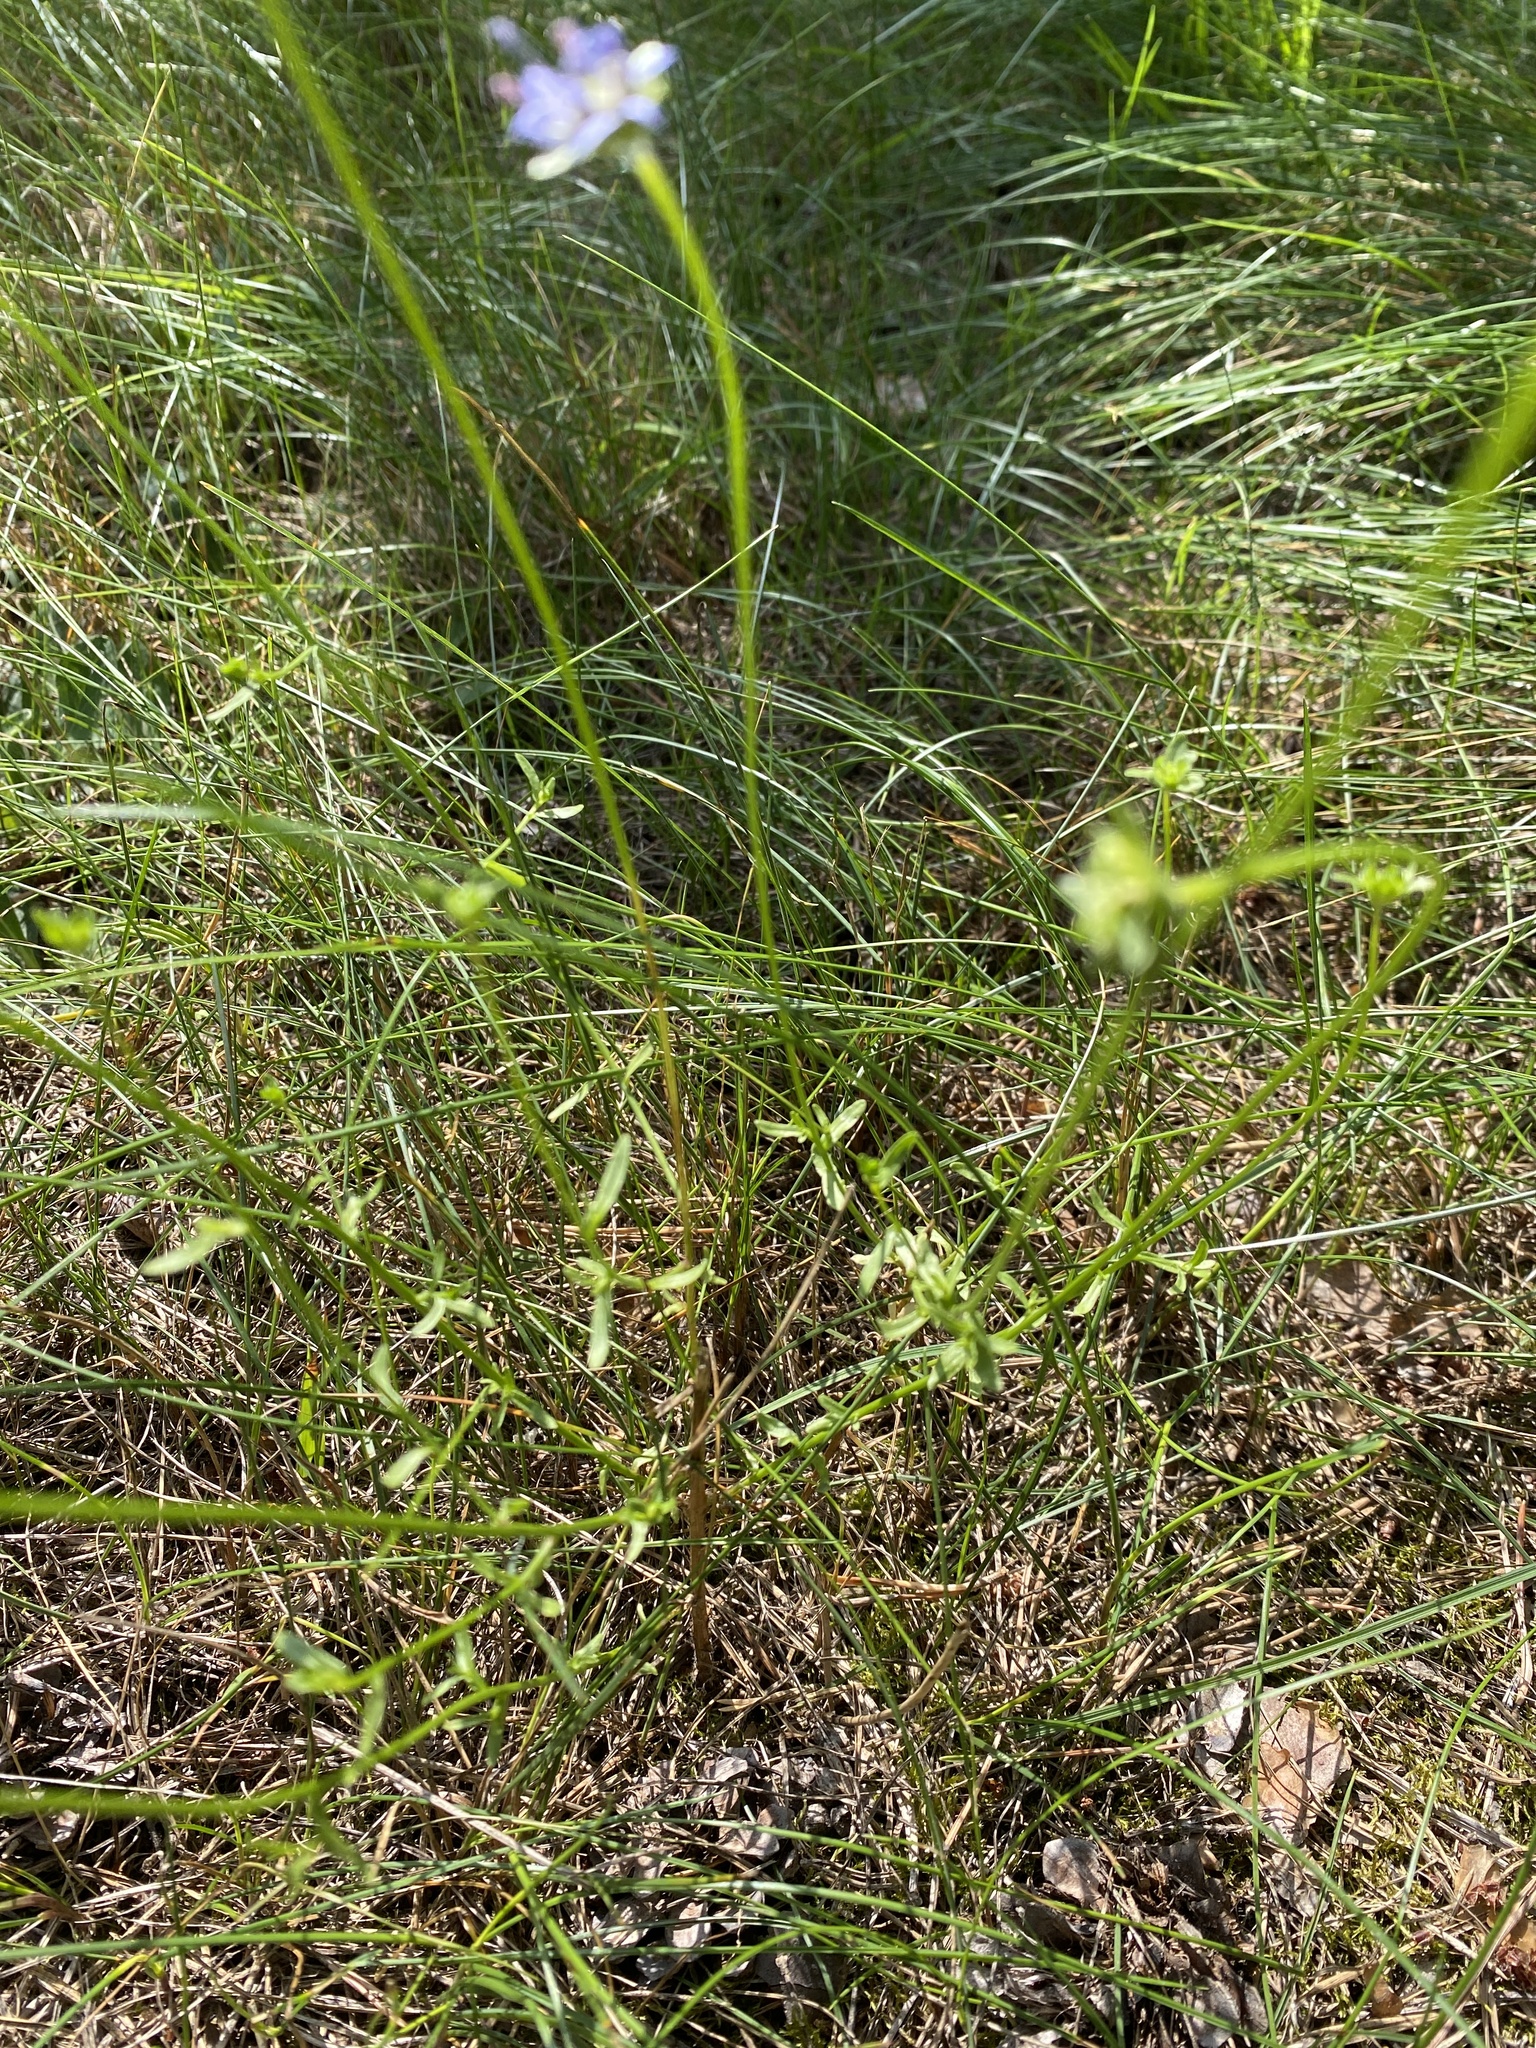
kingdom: Plantae
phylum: Tracheophyta
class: Magnoliopsida
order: Asterales
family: Campanulaceae
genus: Jasione
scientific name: Jasione montana
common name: Sheep's-bit
